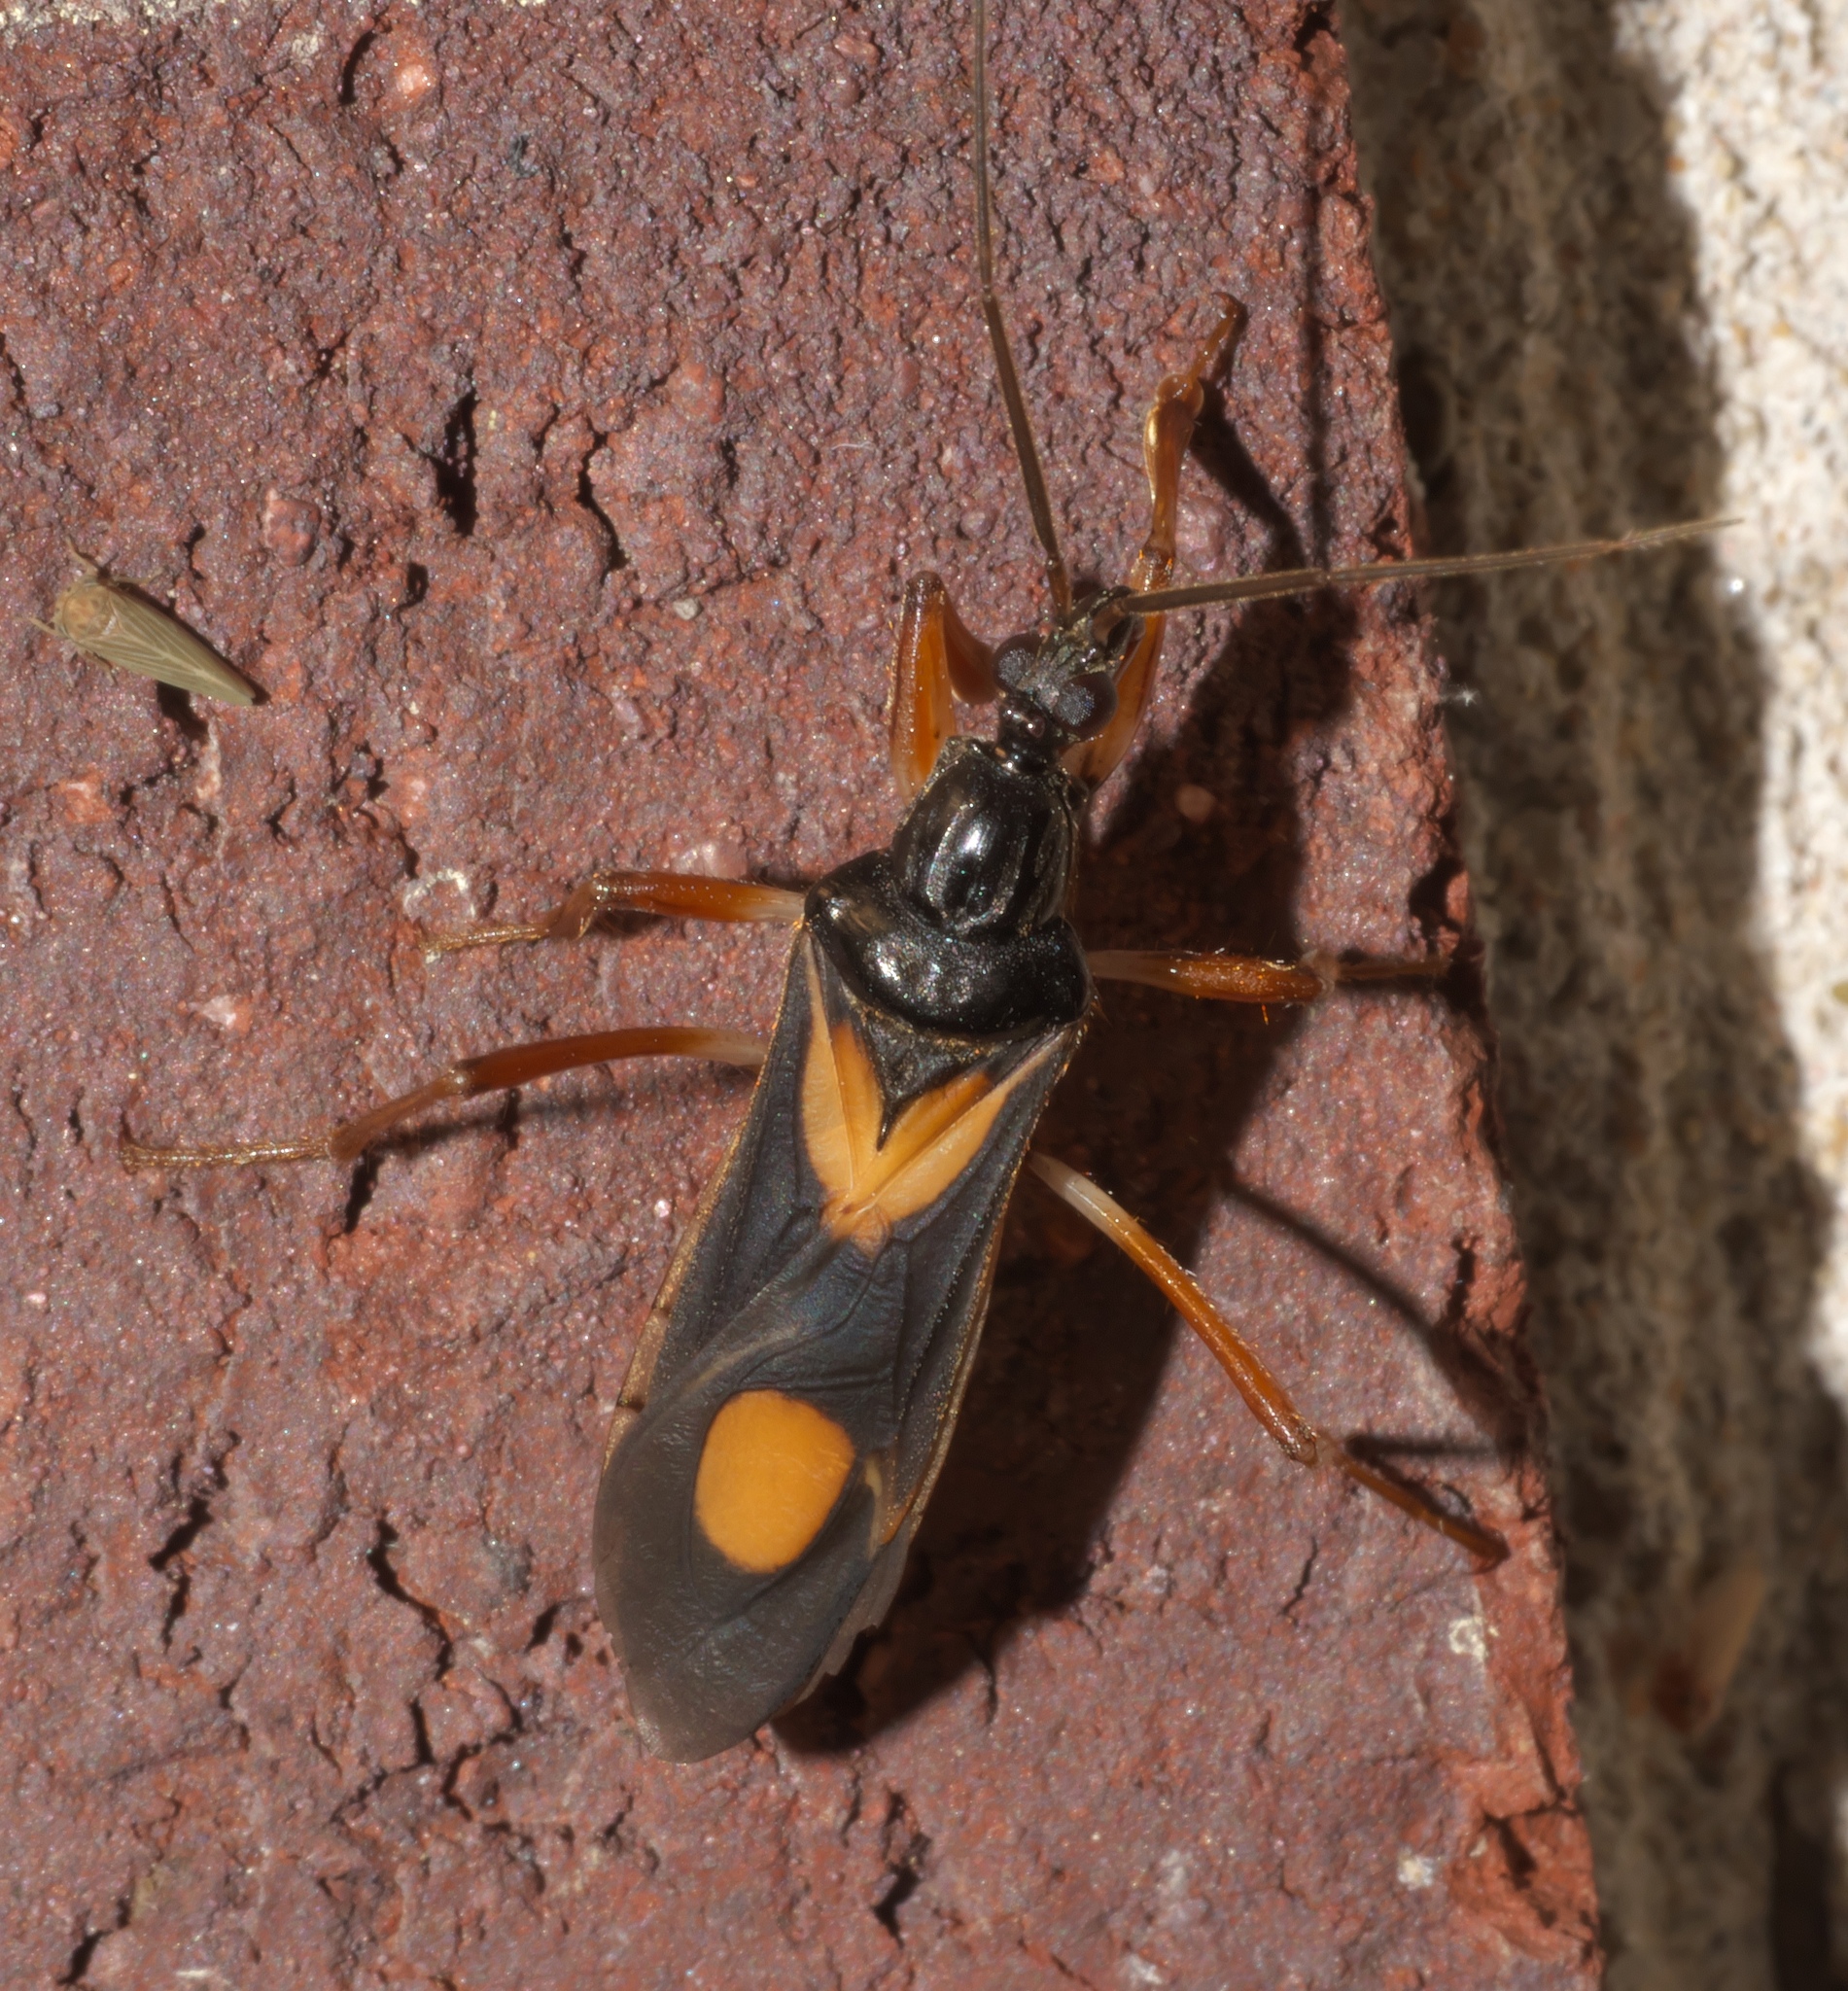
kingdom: Animalia
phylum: Arthropoda
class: Insecta
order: Hemiptera
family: Reduviidae
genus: Rasahus
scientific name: Rasahus hamatus
